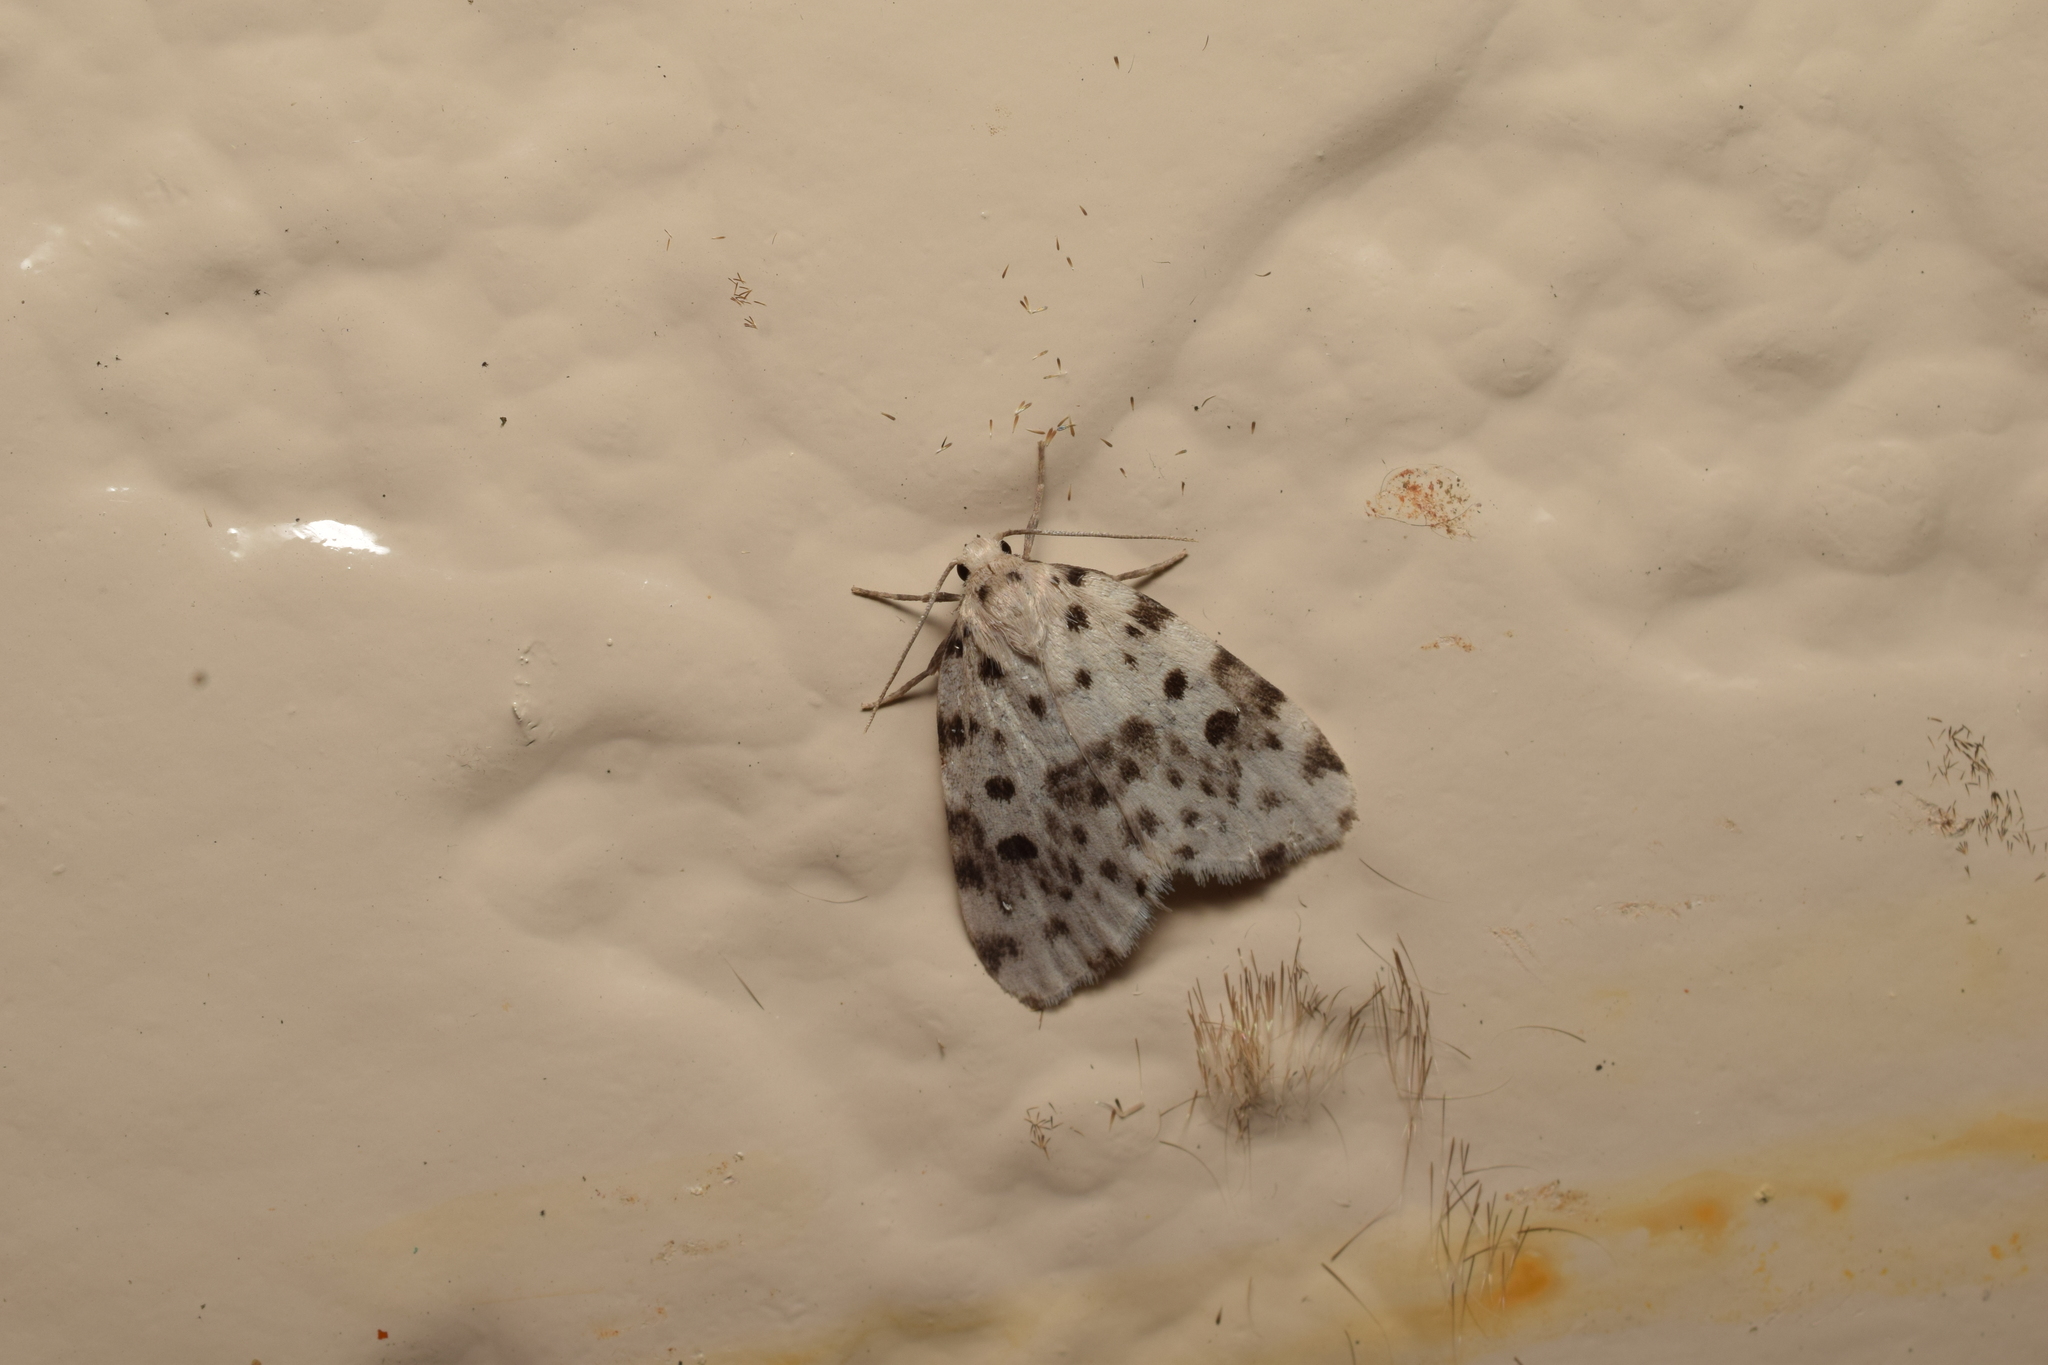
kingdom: Animalia
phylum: Arthropoda
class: Insecta
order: Lepidoptera
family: Erebidae
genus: Siccia
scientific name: Siccia altaica
